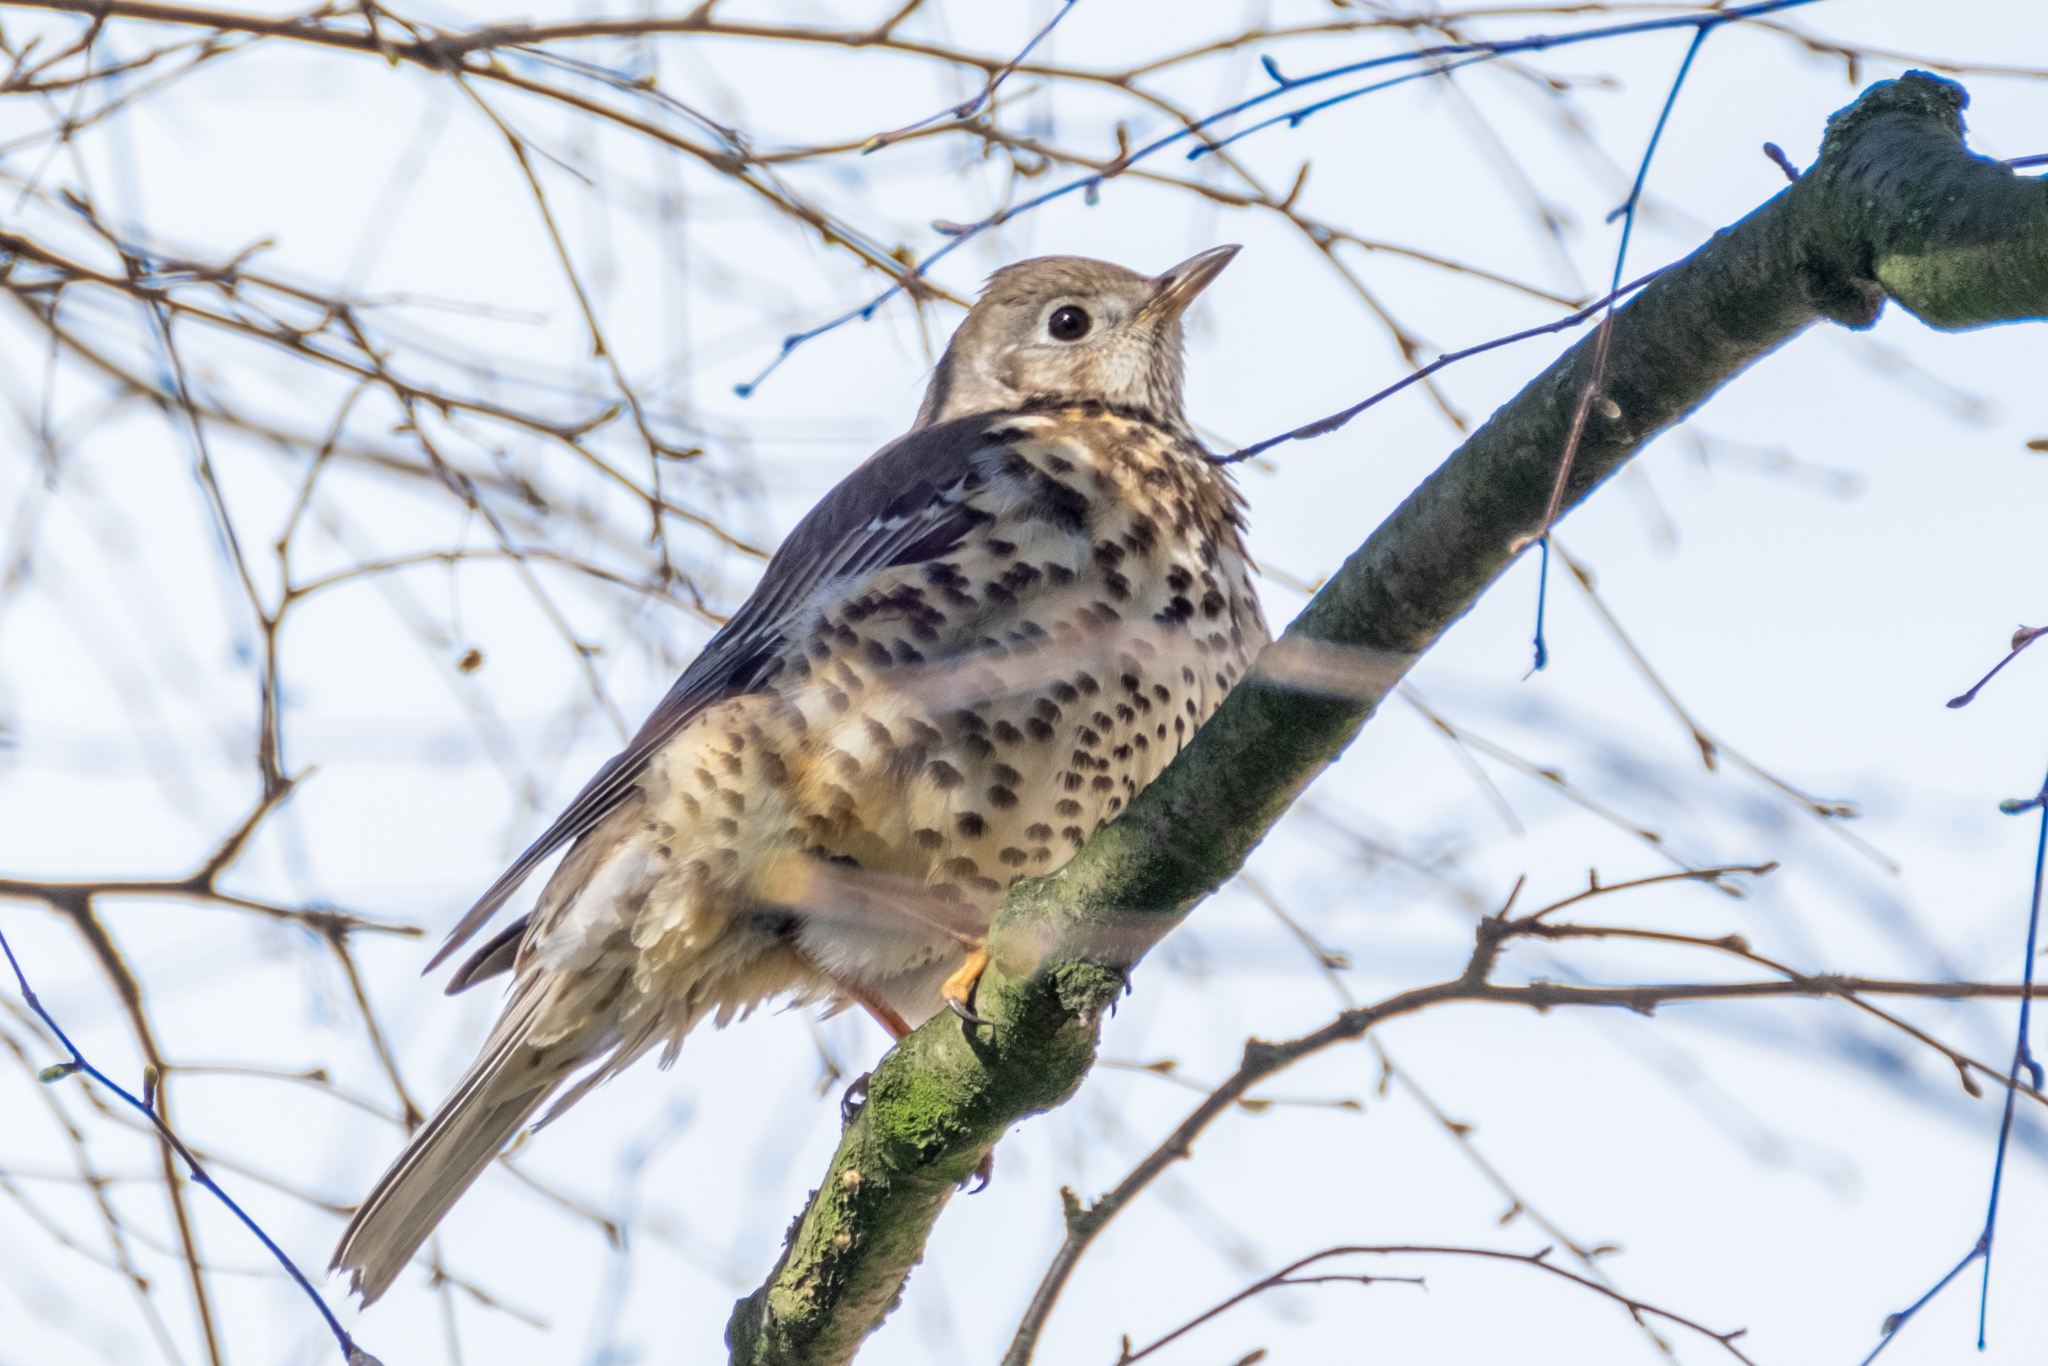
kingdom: Animalia
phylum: Chordata
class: Aves
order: Passeriformes
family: Turdidae
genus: Turdus
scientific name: Turdus viscivorus
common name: Mistle thrush
